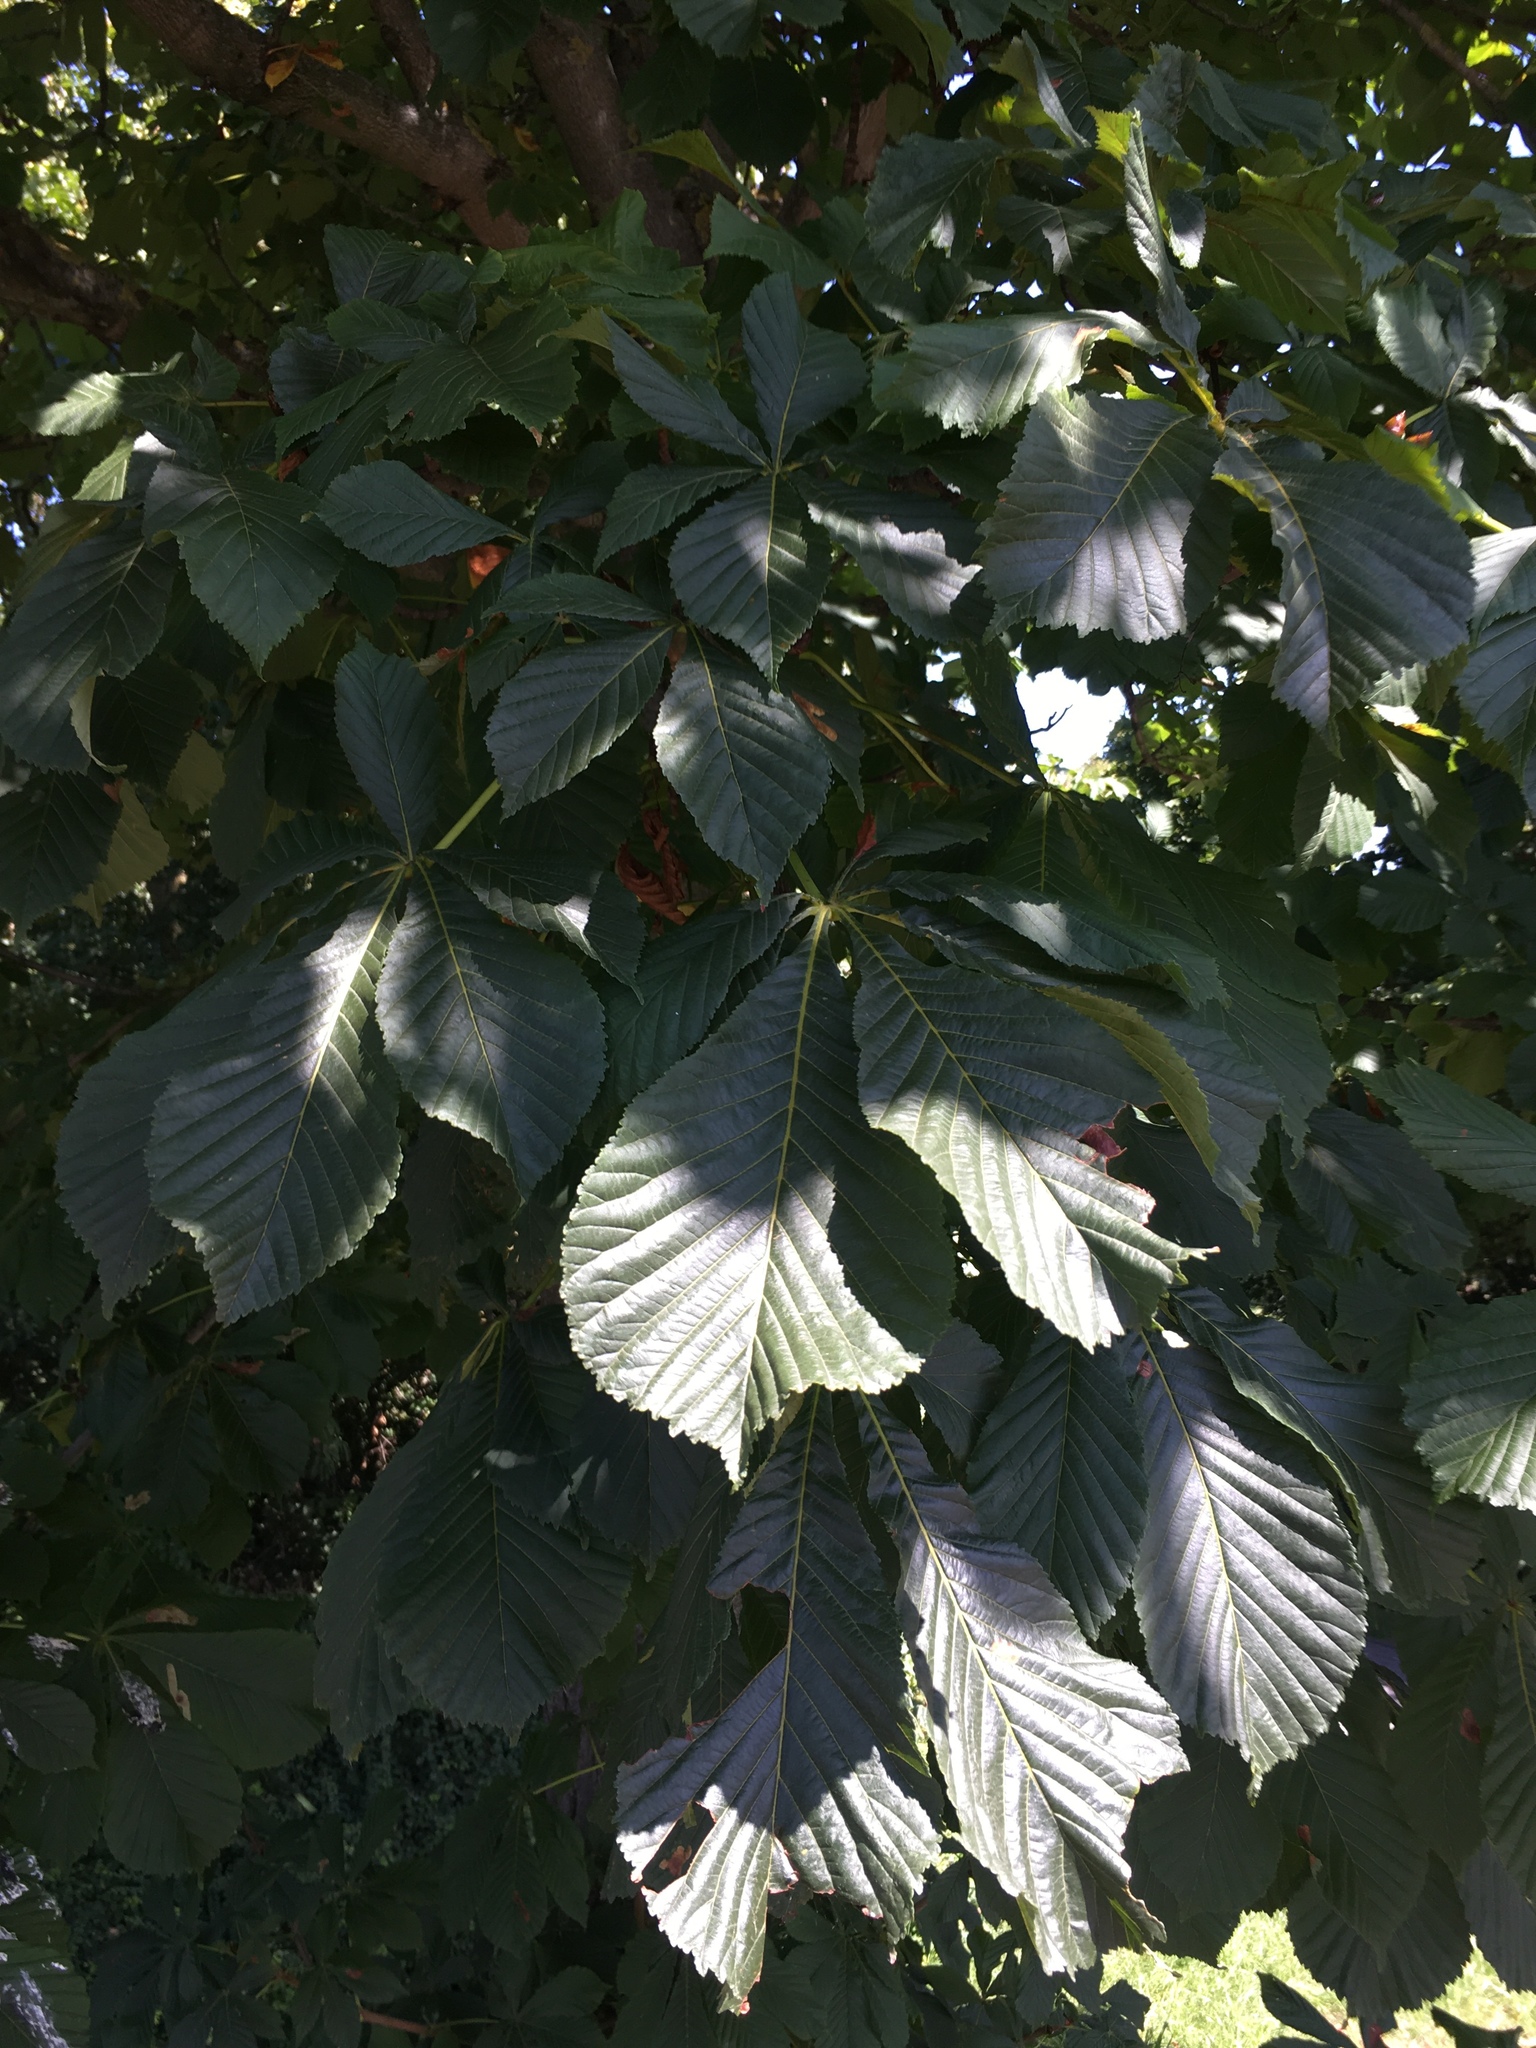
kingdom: Plantae
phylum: Tracheophyta
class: Magnoliopsida
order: Sapindales
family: Sapindaceae
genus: Aesculus
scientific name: Aesculus hippocastanum
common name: Horse-chestnut
